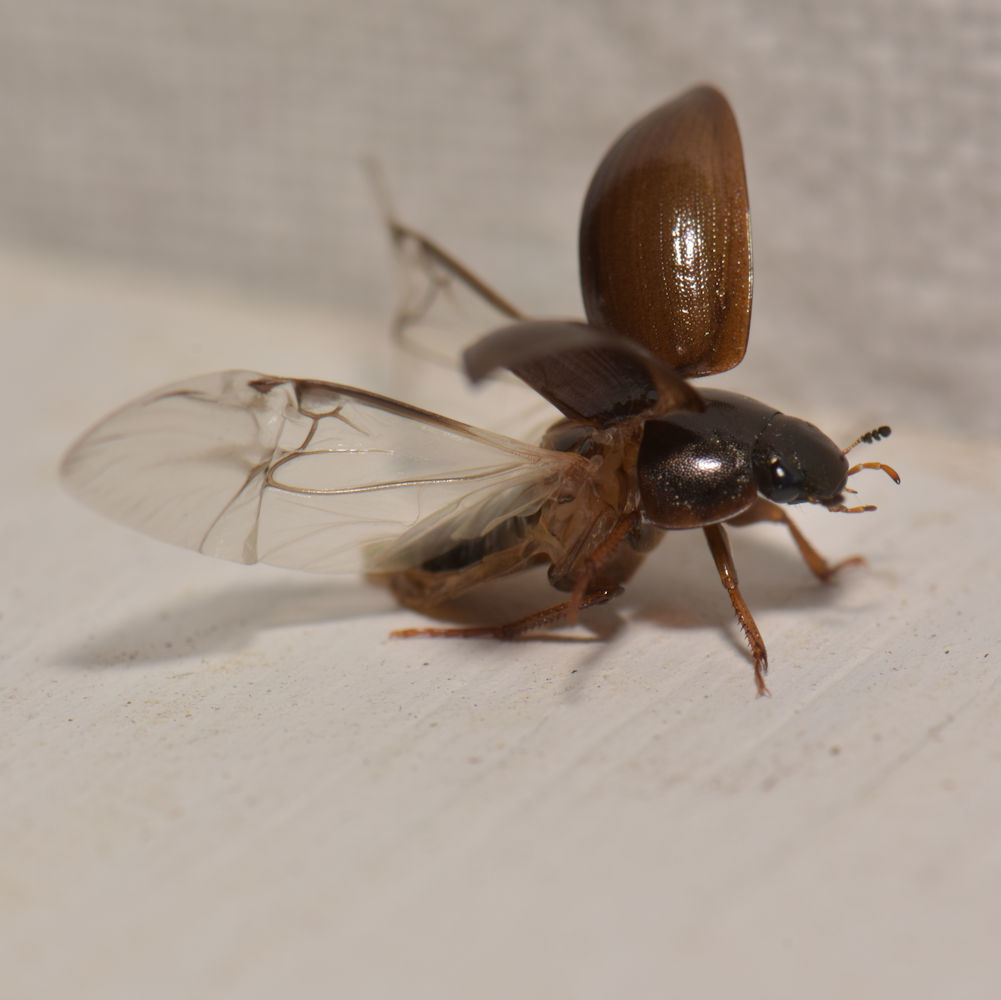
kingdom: Animalia
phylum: Arthropoda
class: Insecta
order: Coleoptera
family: Hydrophilidae
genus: Hydrobius
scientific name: Hydrobius fuscipes
